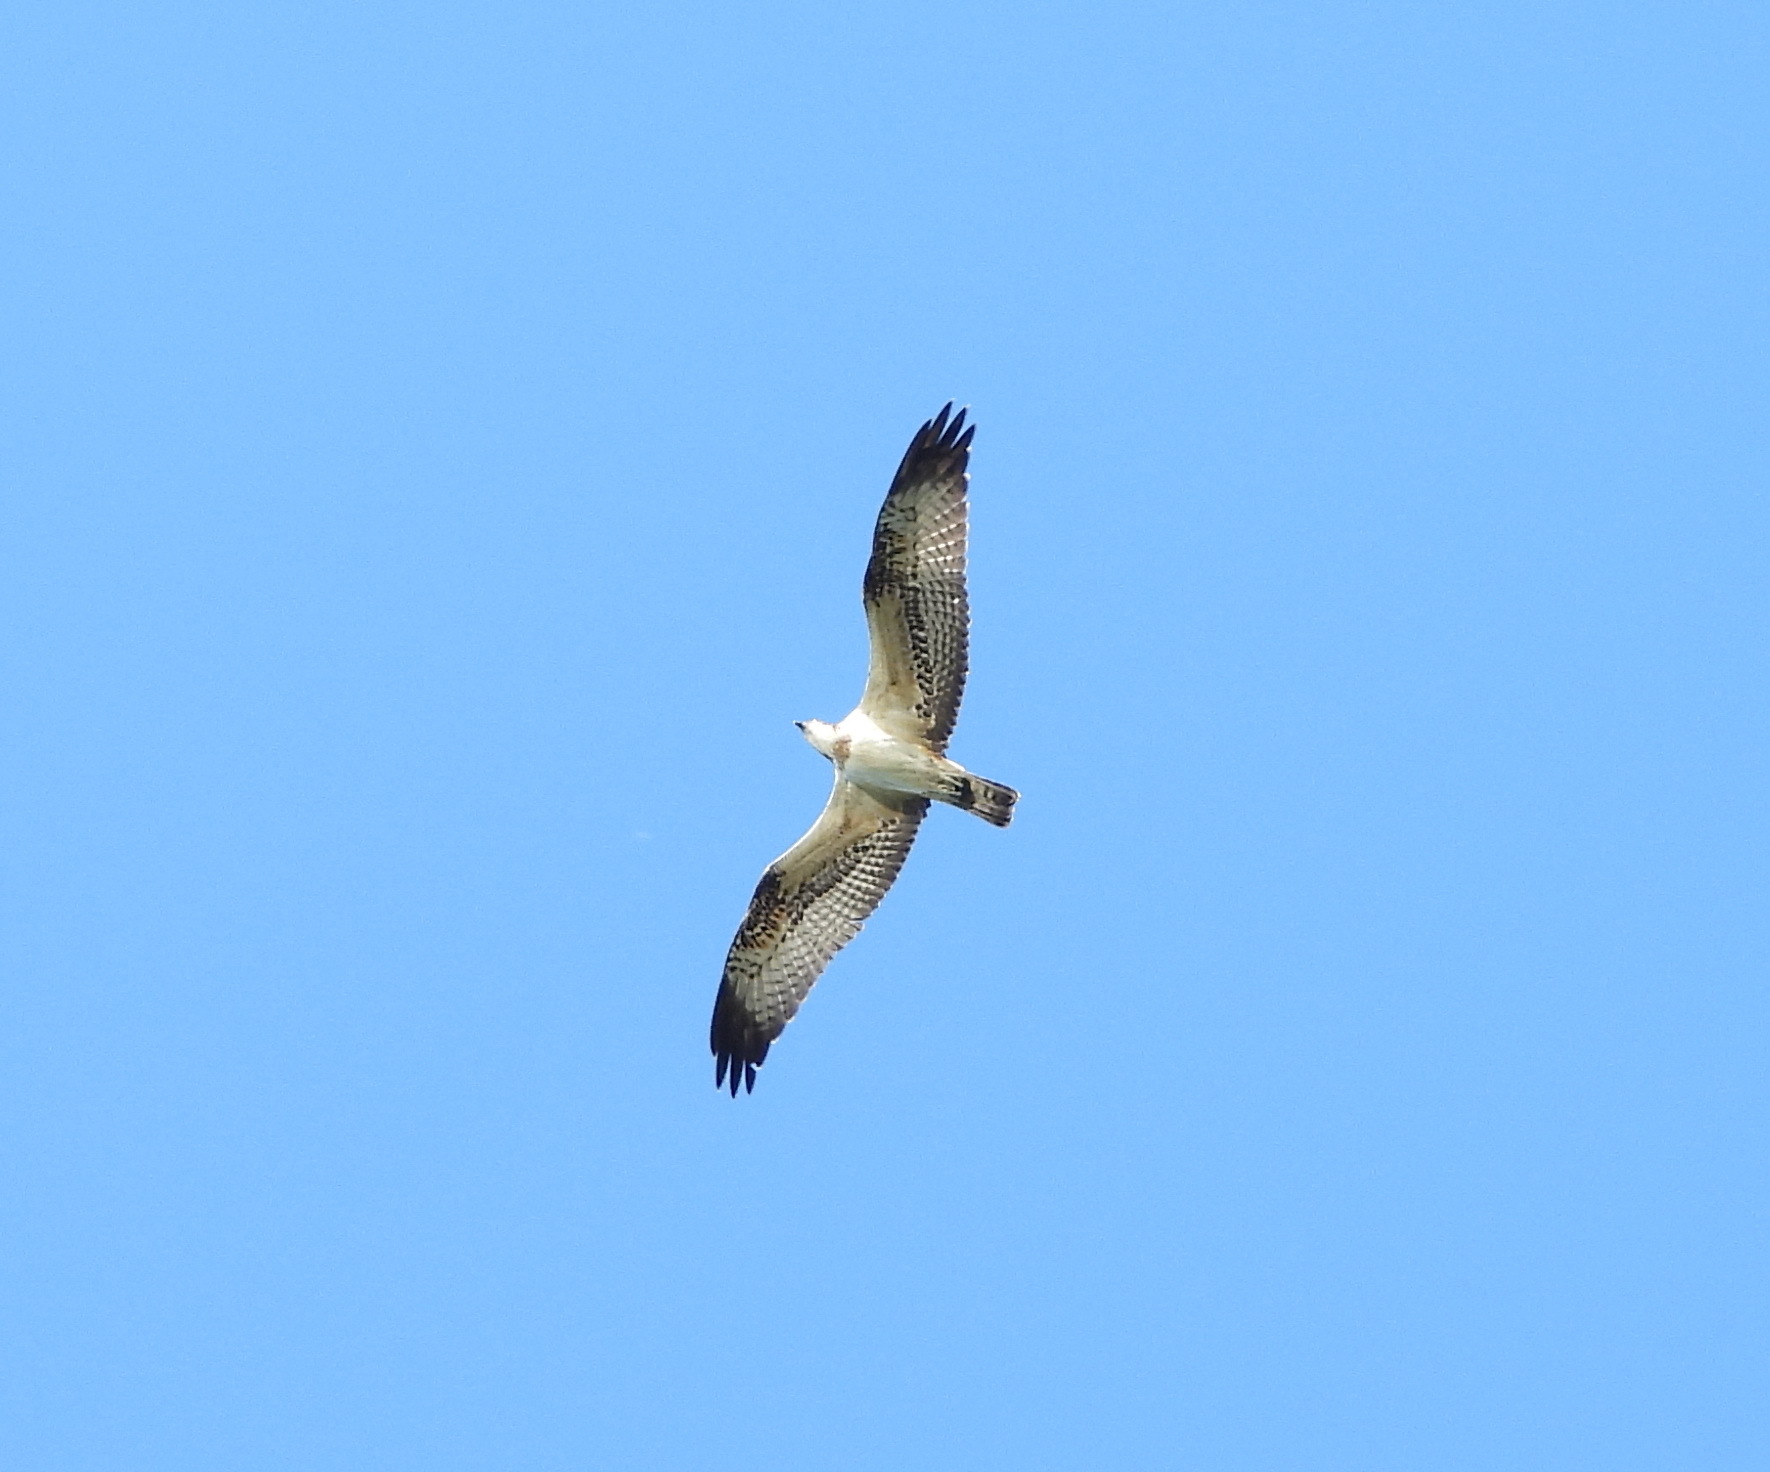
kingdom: Animalia
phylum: Chordata
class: Aves
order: Accipitriformes
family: Pandionidae
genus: Pandion
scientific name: Pandion haliaetus
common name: Osprey
